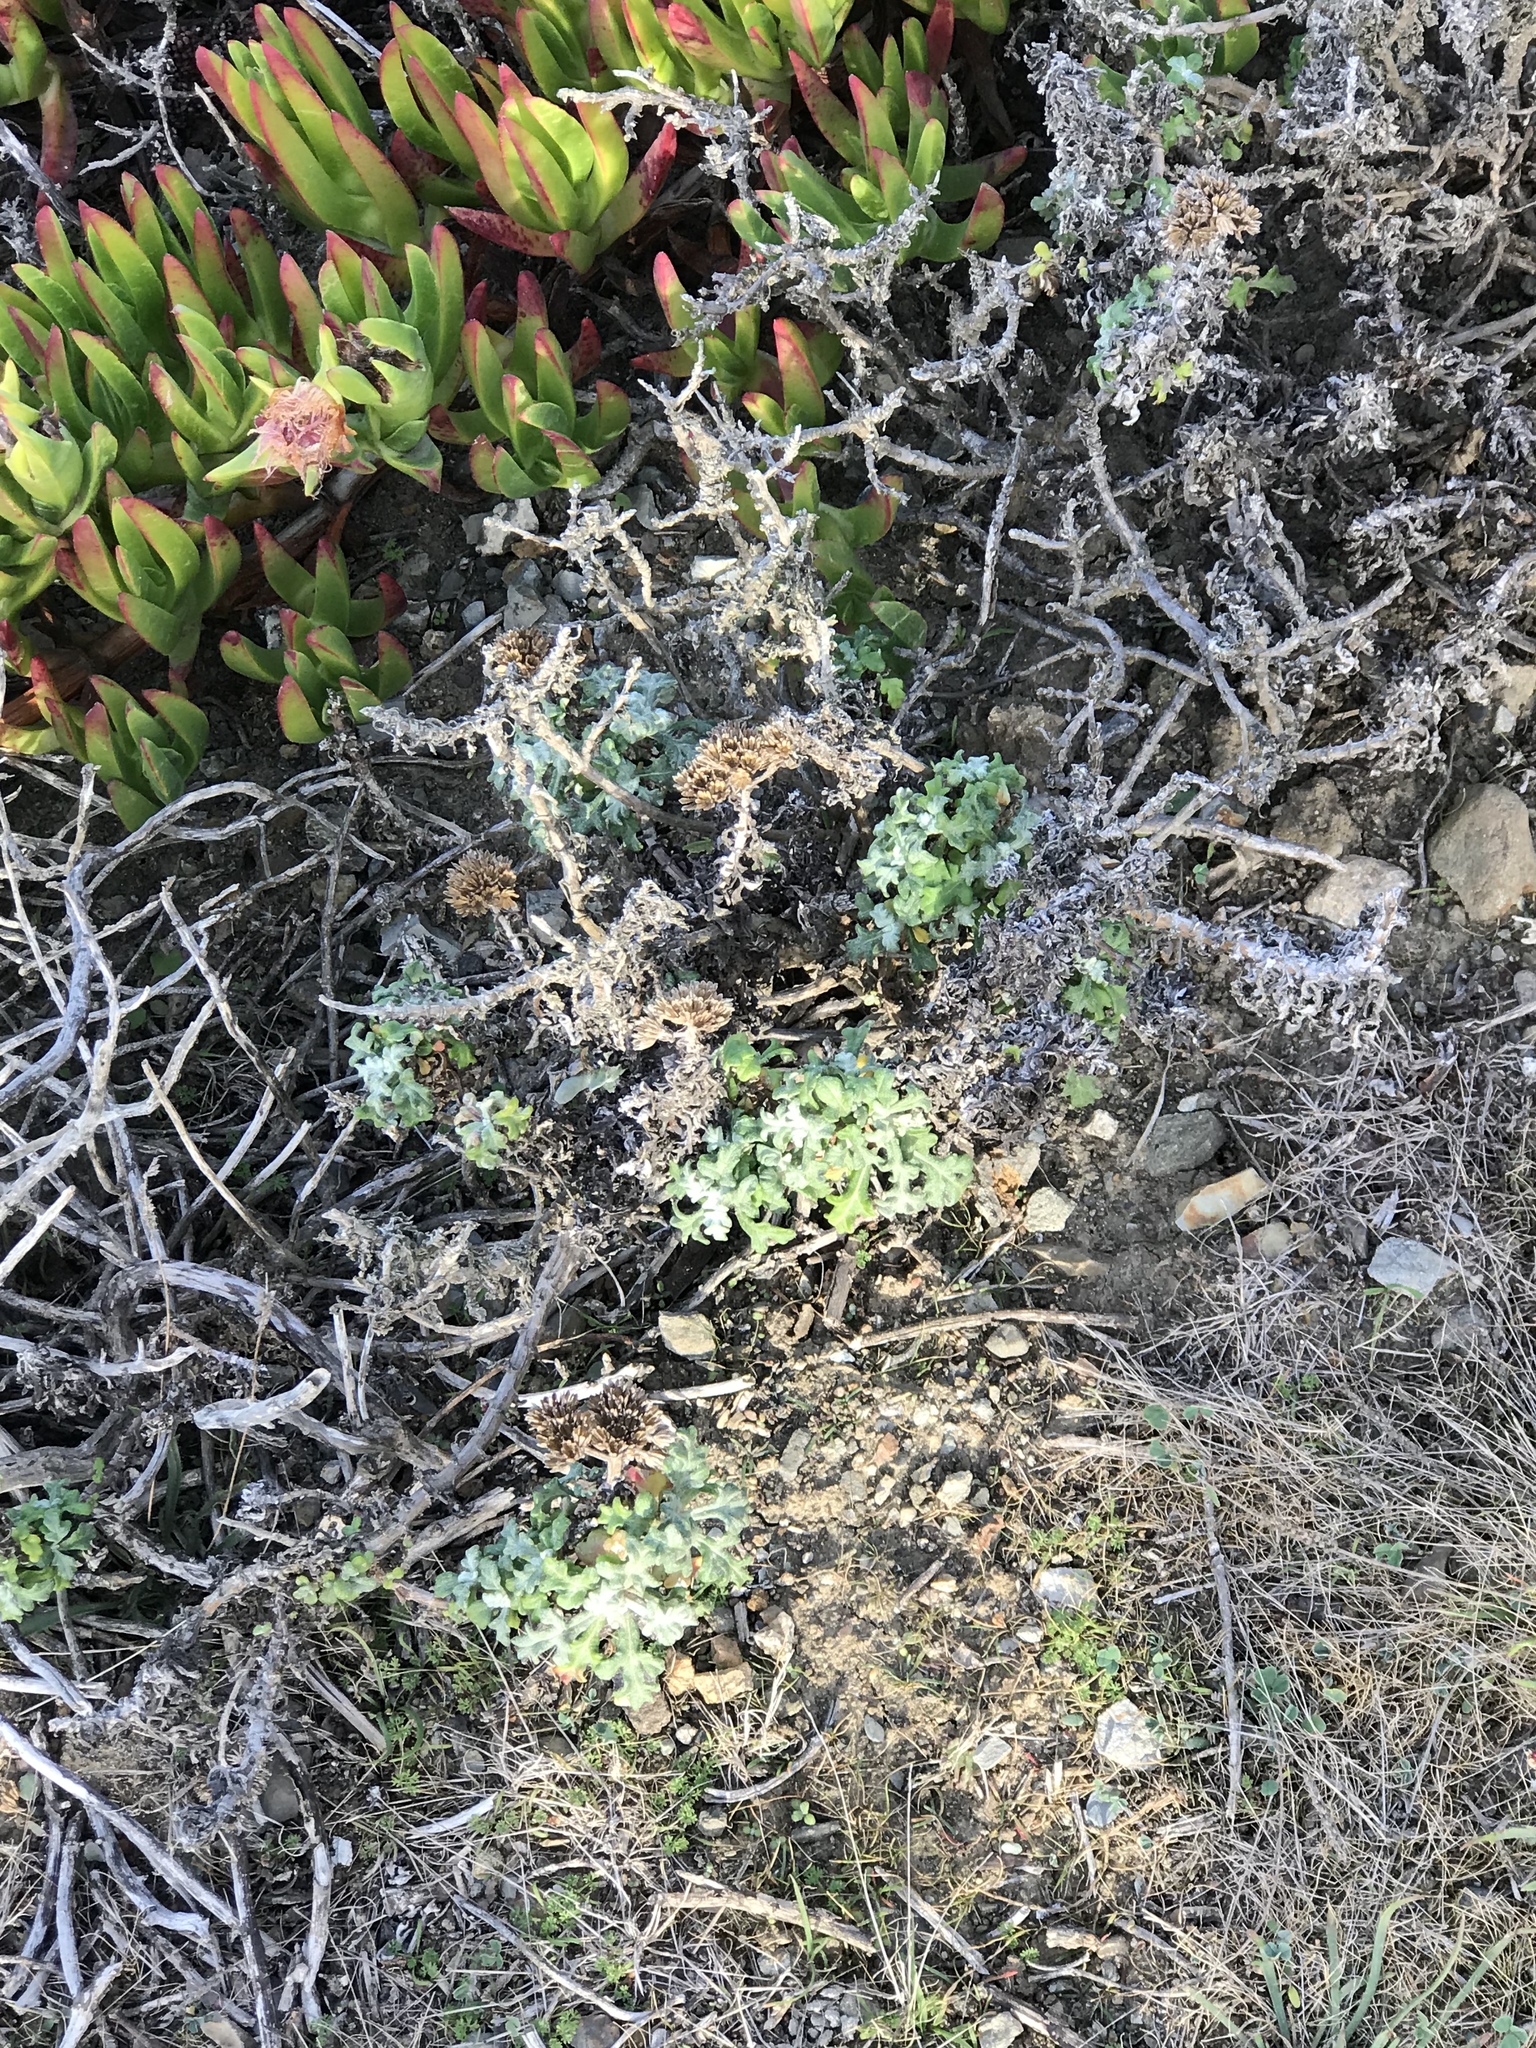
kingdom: Plantae
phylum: Tracheophyta
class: Magnoliopsida
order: Asterales
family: Asteraceae
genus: Eriophyllum
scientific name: Eriophyllum staechadifolium
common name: Lizardtail
